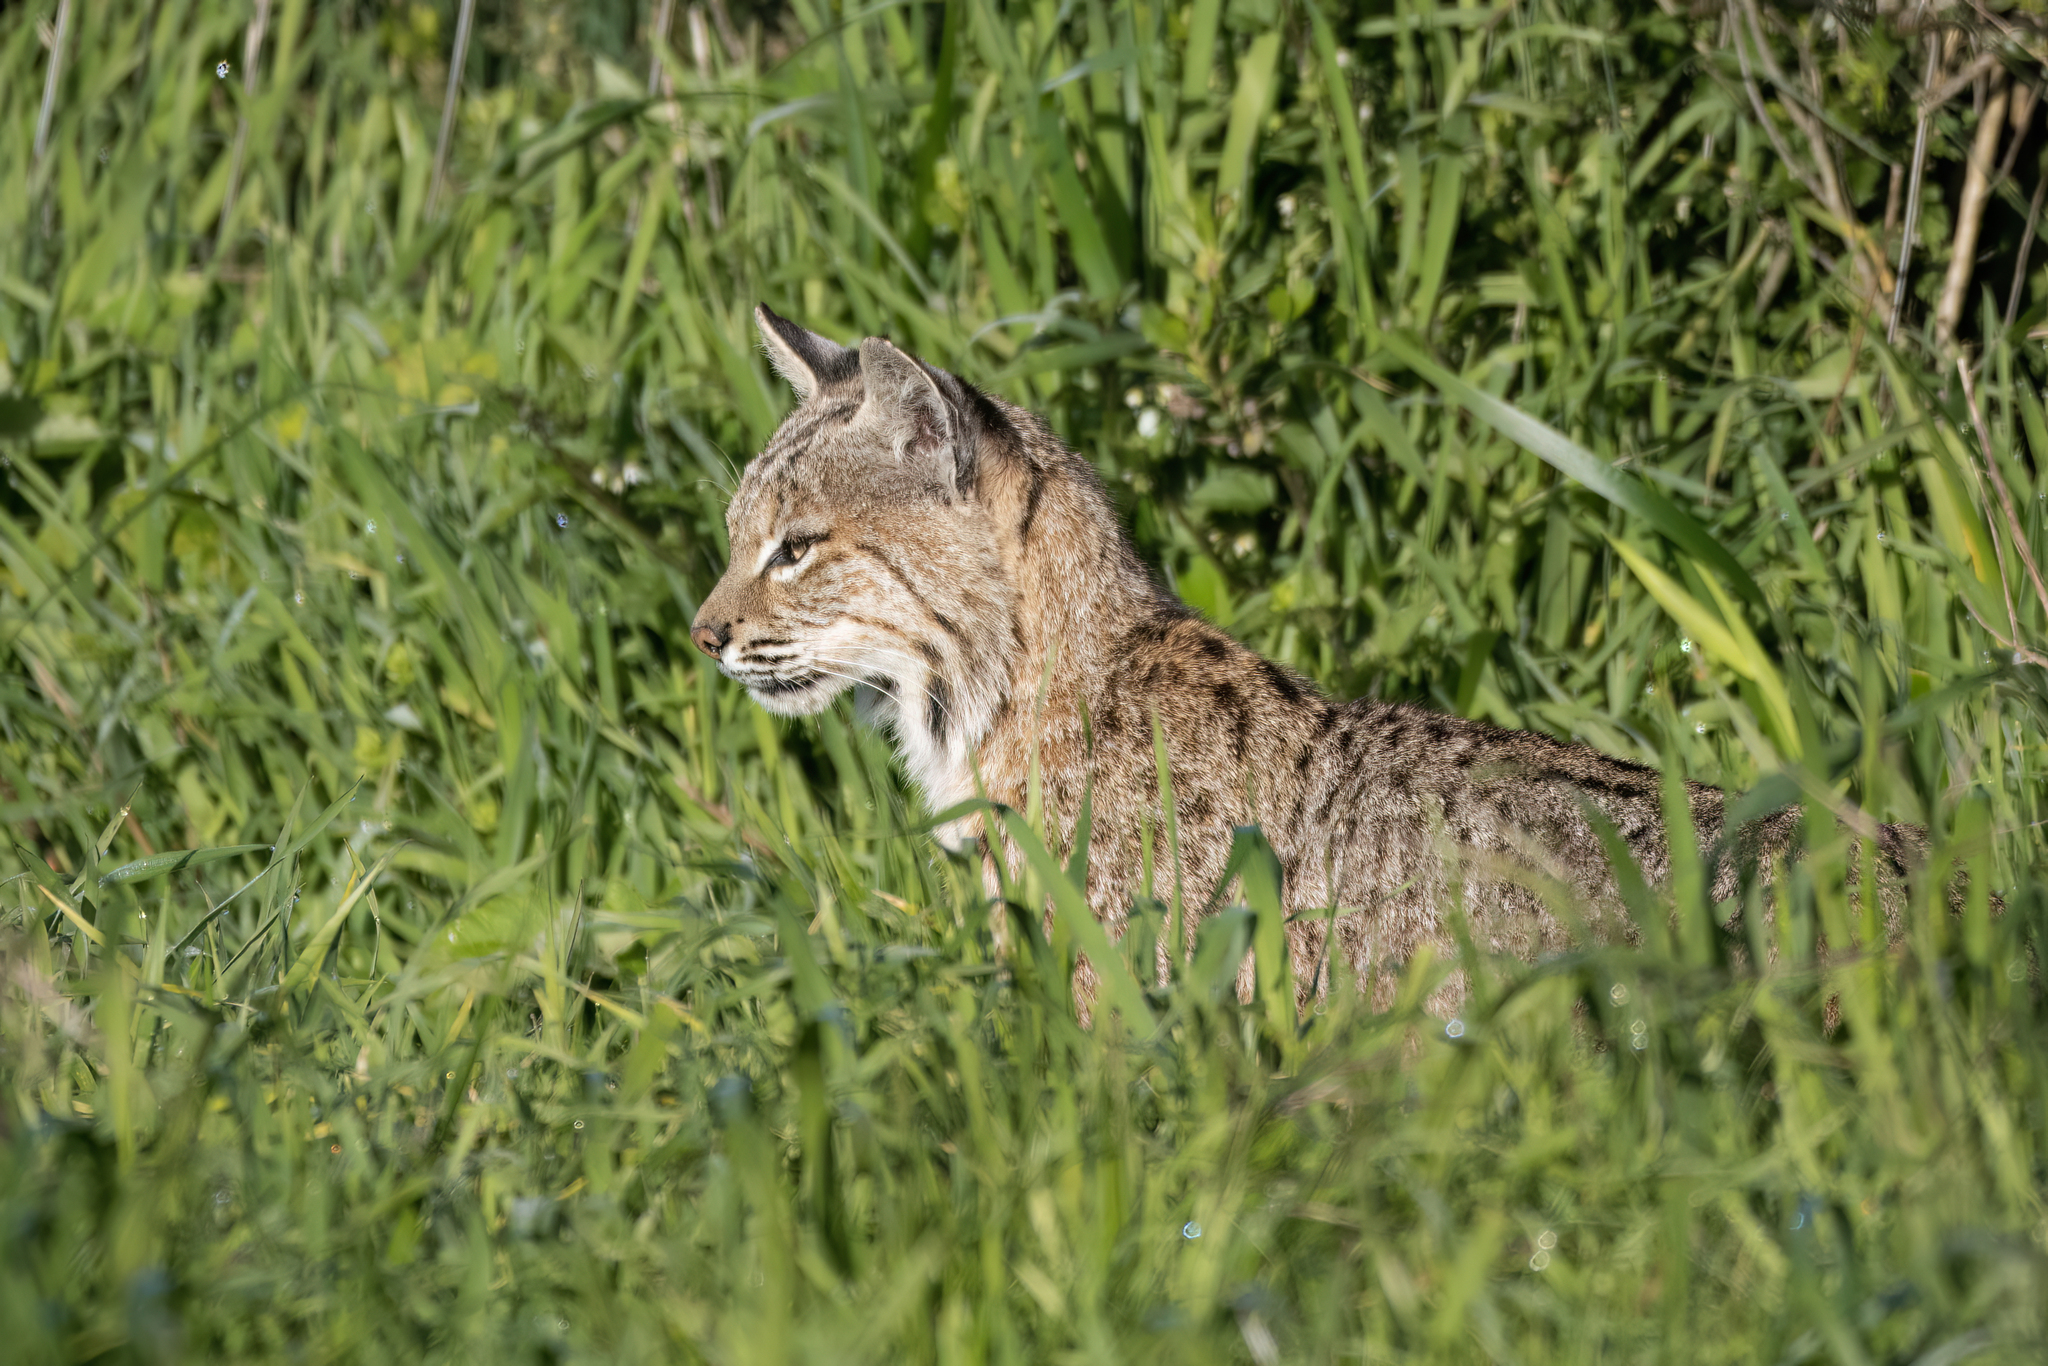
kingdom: Animalia
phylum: Chordata
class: Mammalia
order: Carnivora
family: Felidae
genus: Lynx
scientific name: Lynx rufus
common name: Bobcat
